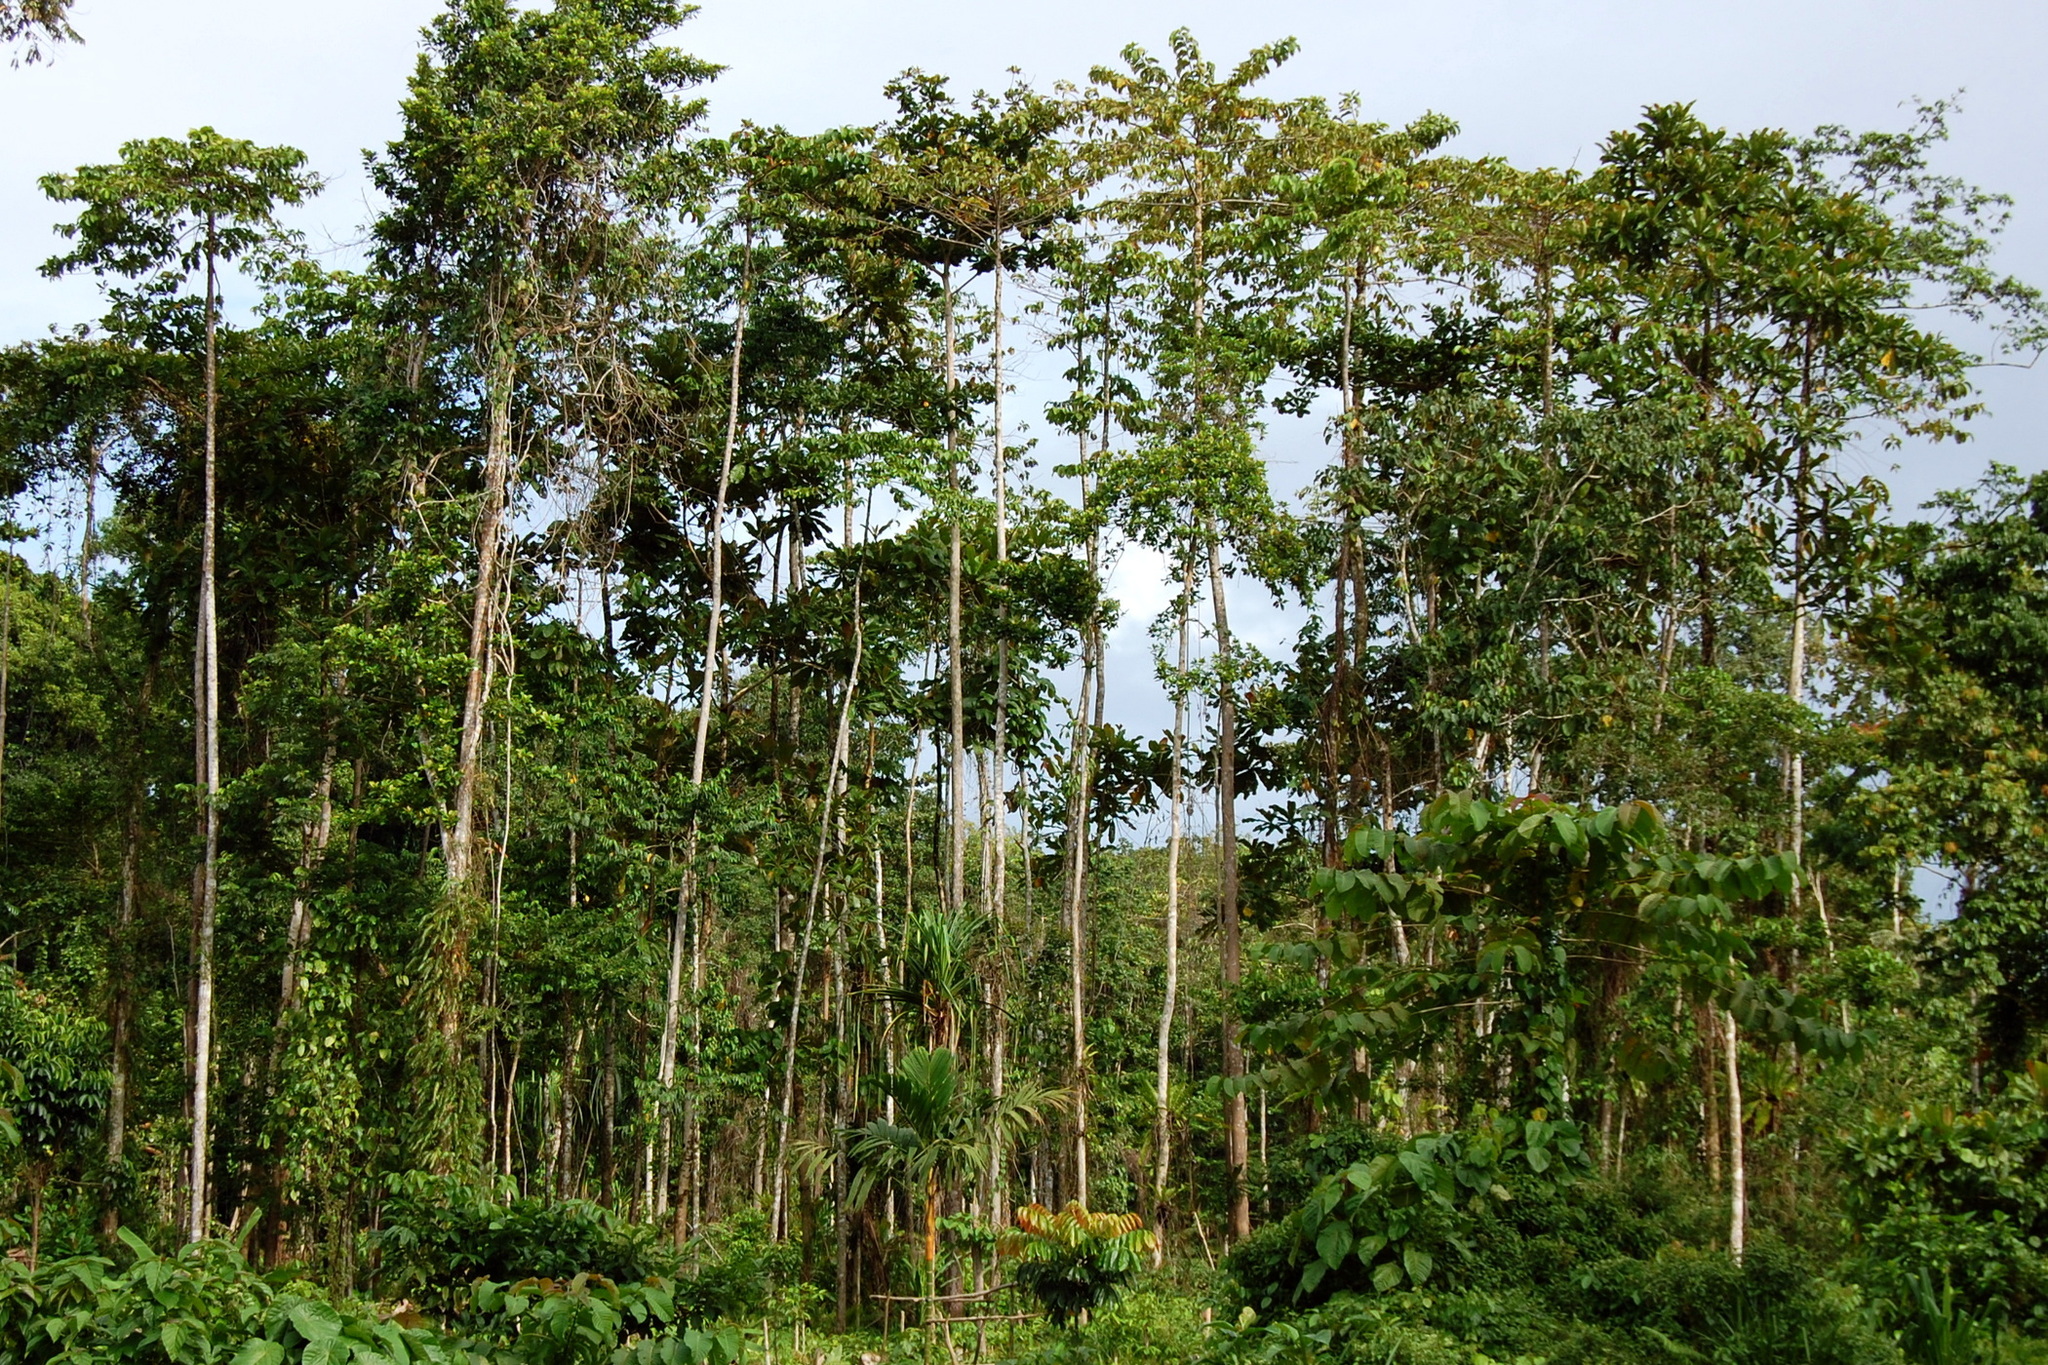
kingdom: Plantae
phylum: Tracheophyta
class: Magnoliopsida
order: Gentianales
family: Rubiaceae
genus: Neolamarckia
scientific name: Neolamarckia cadamba
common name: Leichhardt-pine
